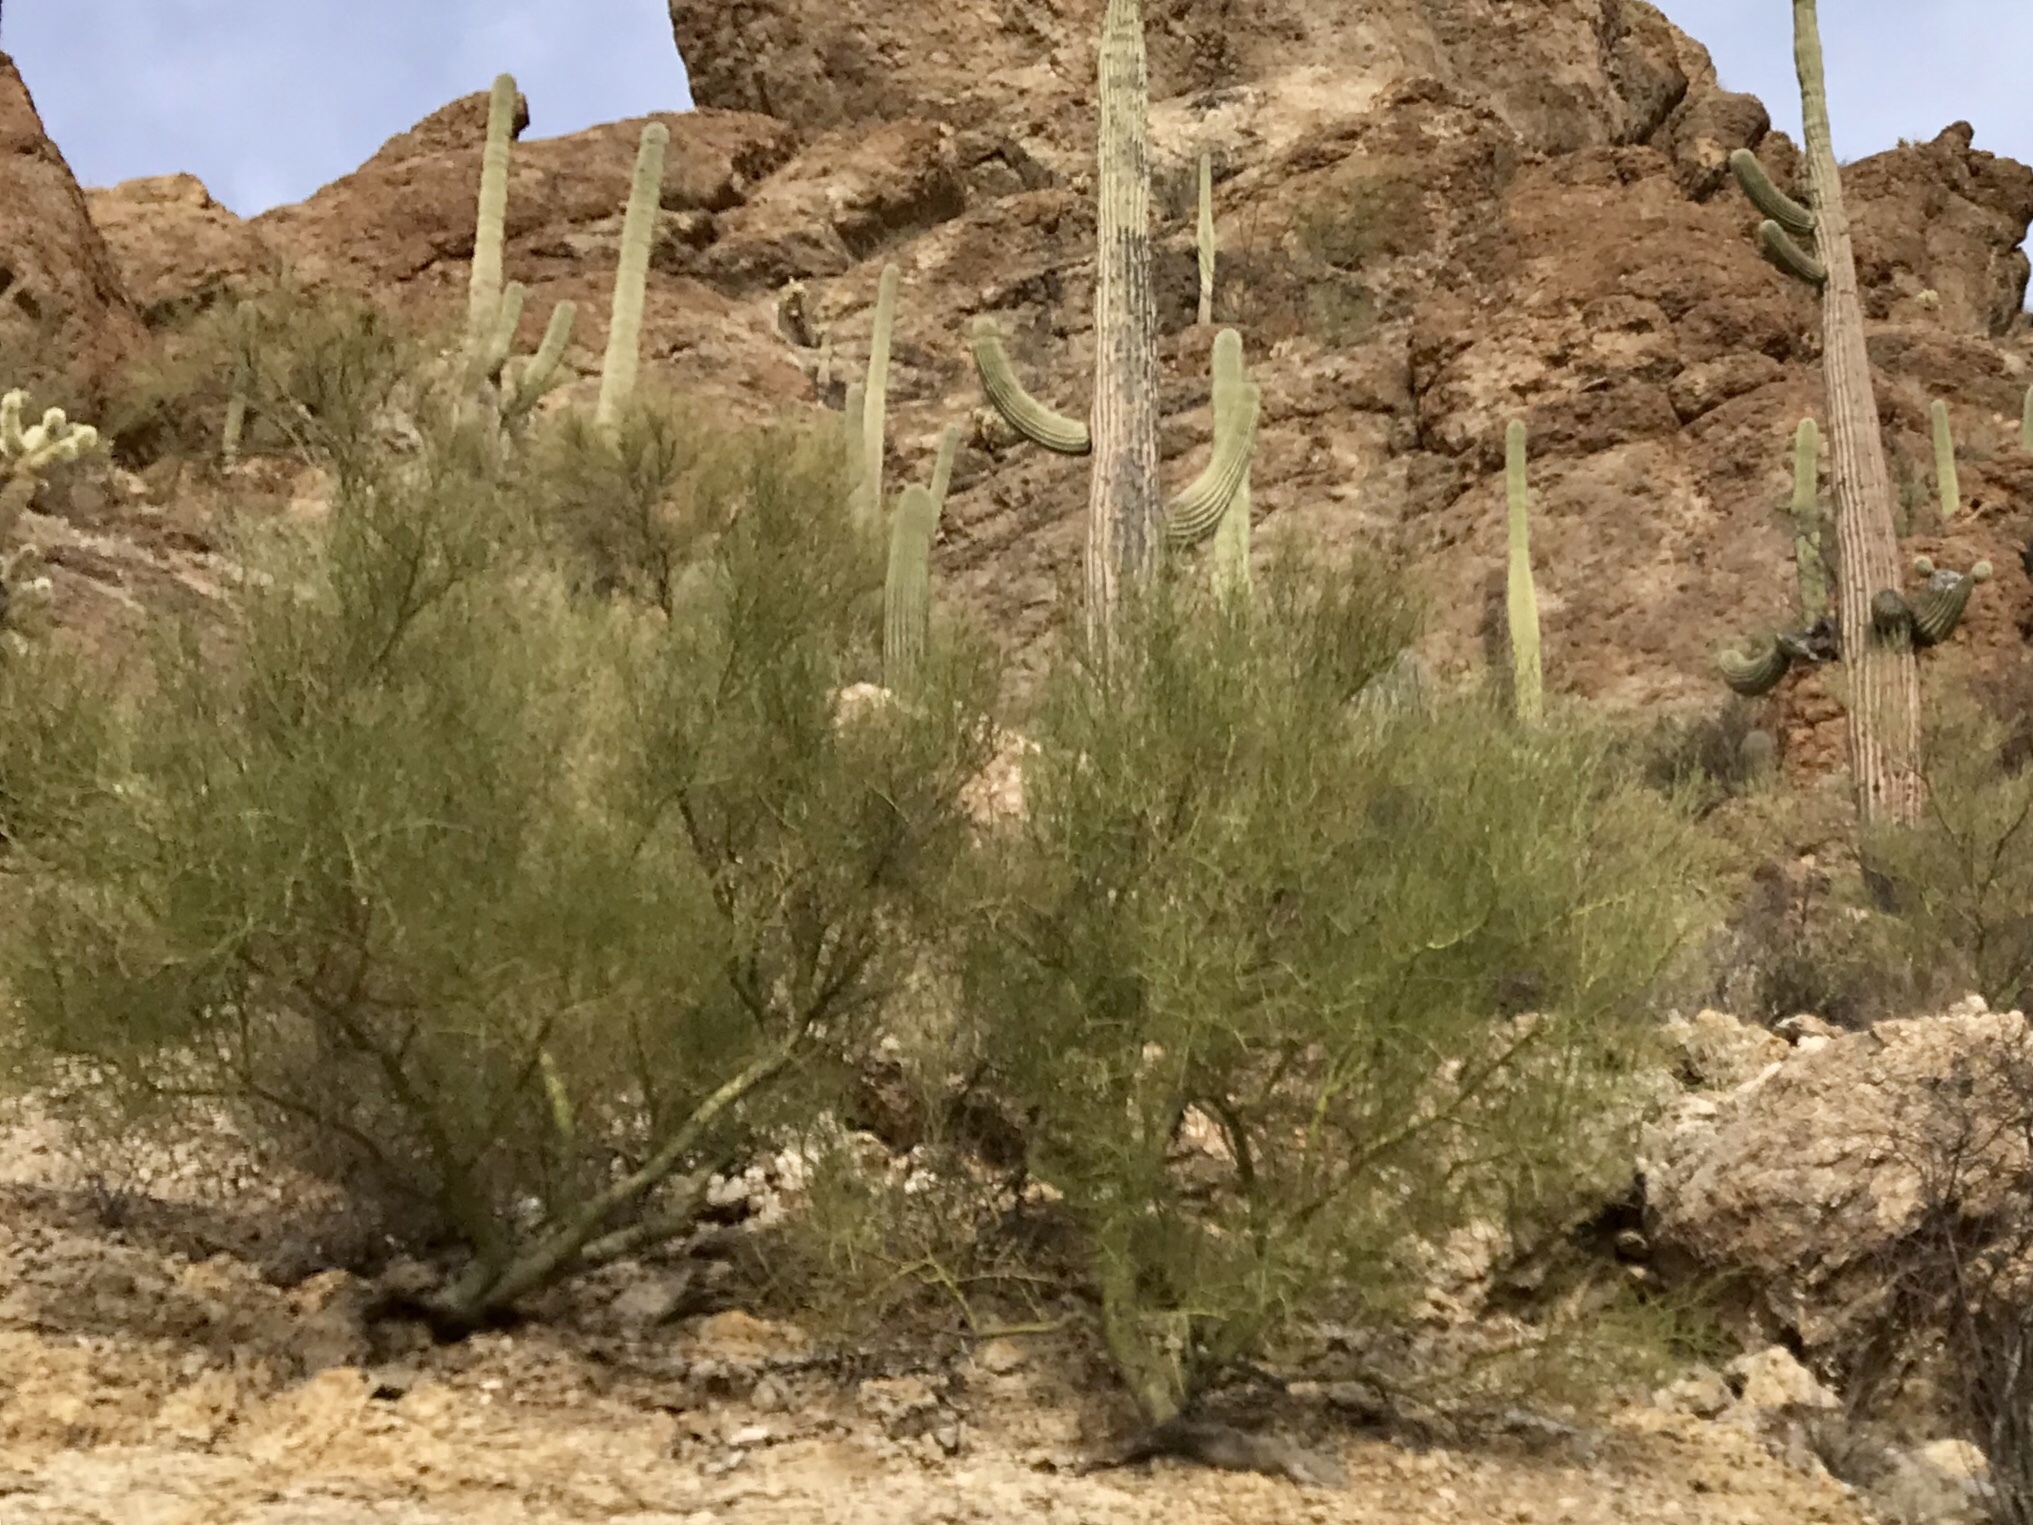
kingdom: Plantae
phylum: Tracheophyta
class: Magnoliopsida
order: Fabales
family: Fabaceae
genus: Parkinsonia
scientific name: Parkinsonia microphylla
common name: Yellow paloverde
